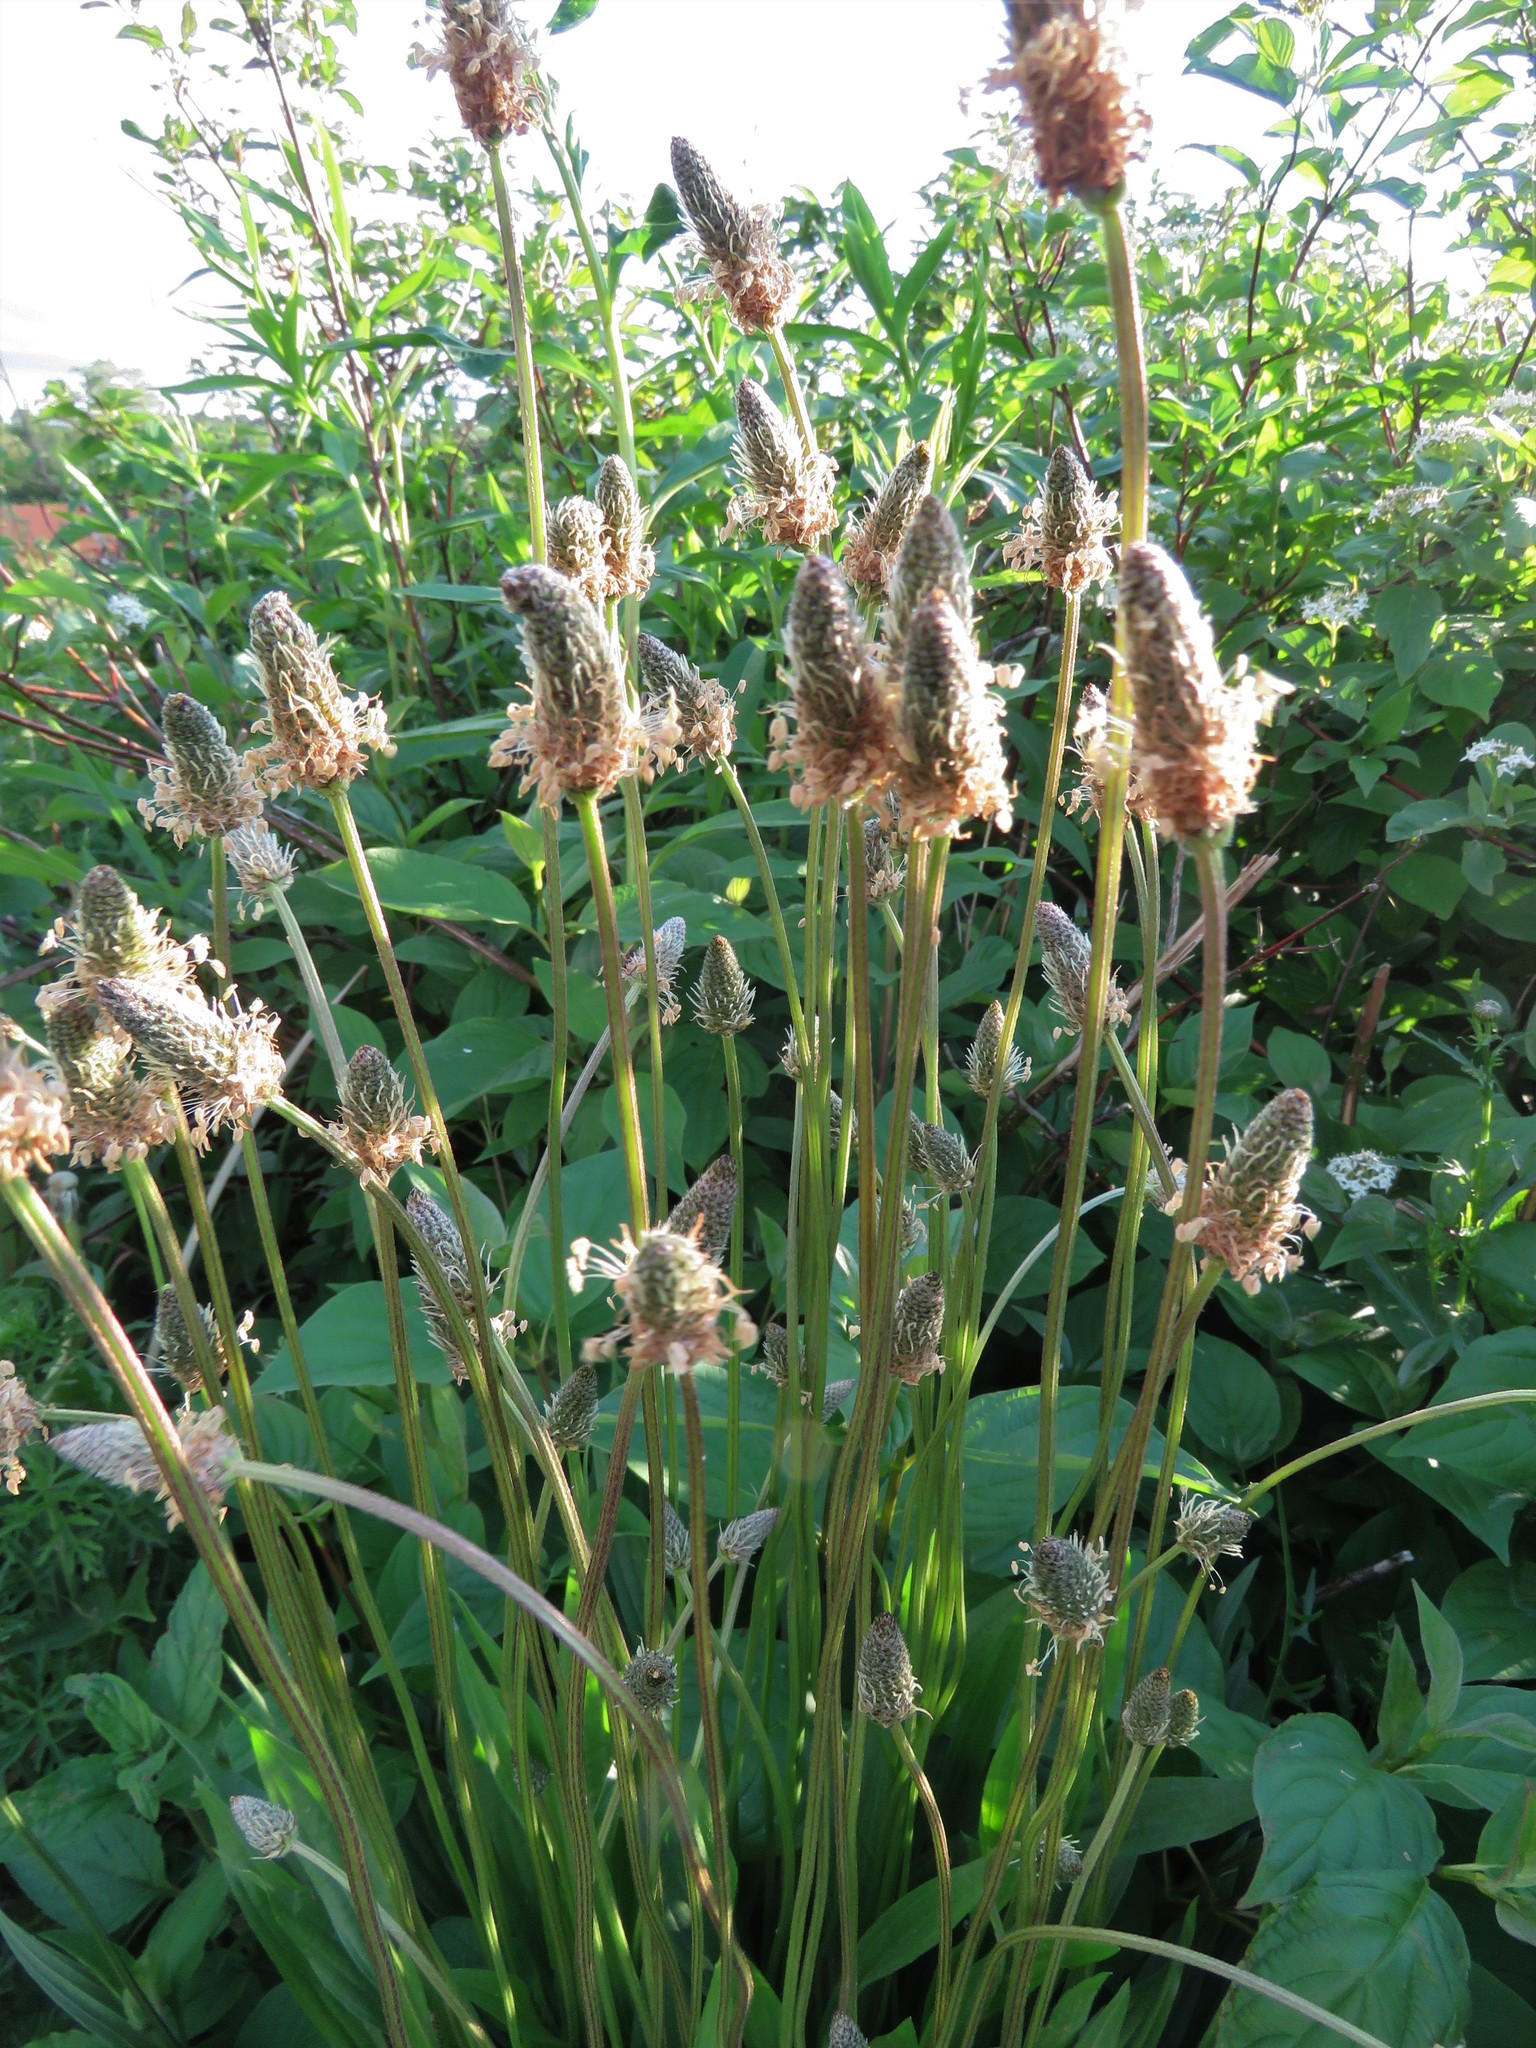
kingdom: Plantae
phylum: Tracheophyta
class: Magnoliopsida
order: Lamiales
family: Plantaginaceae
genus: Plantago
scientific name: Plantago lanceolata
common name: Ribwort plantain
